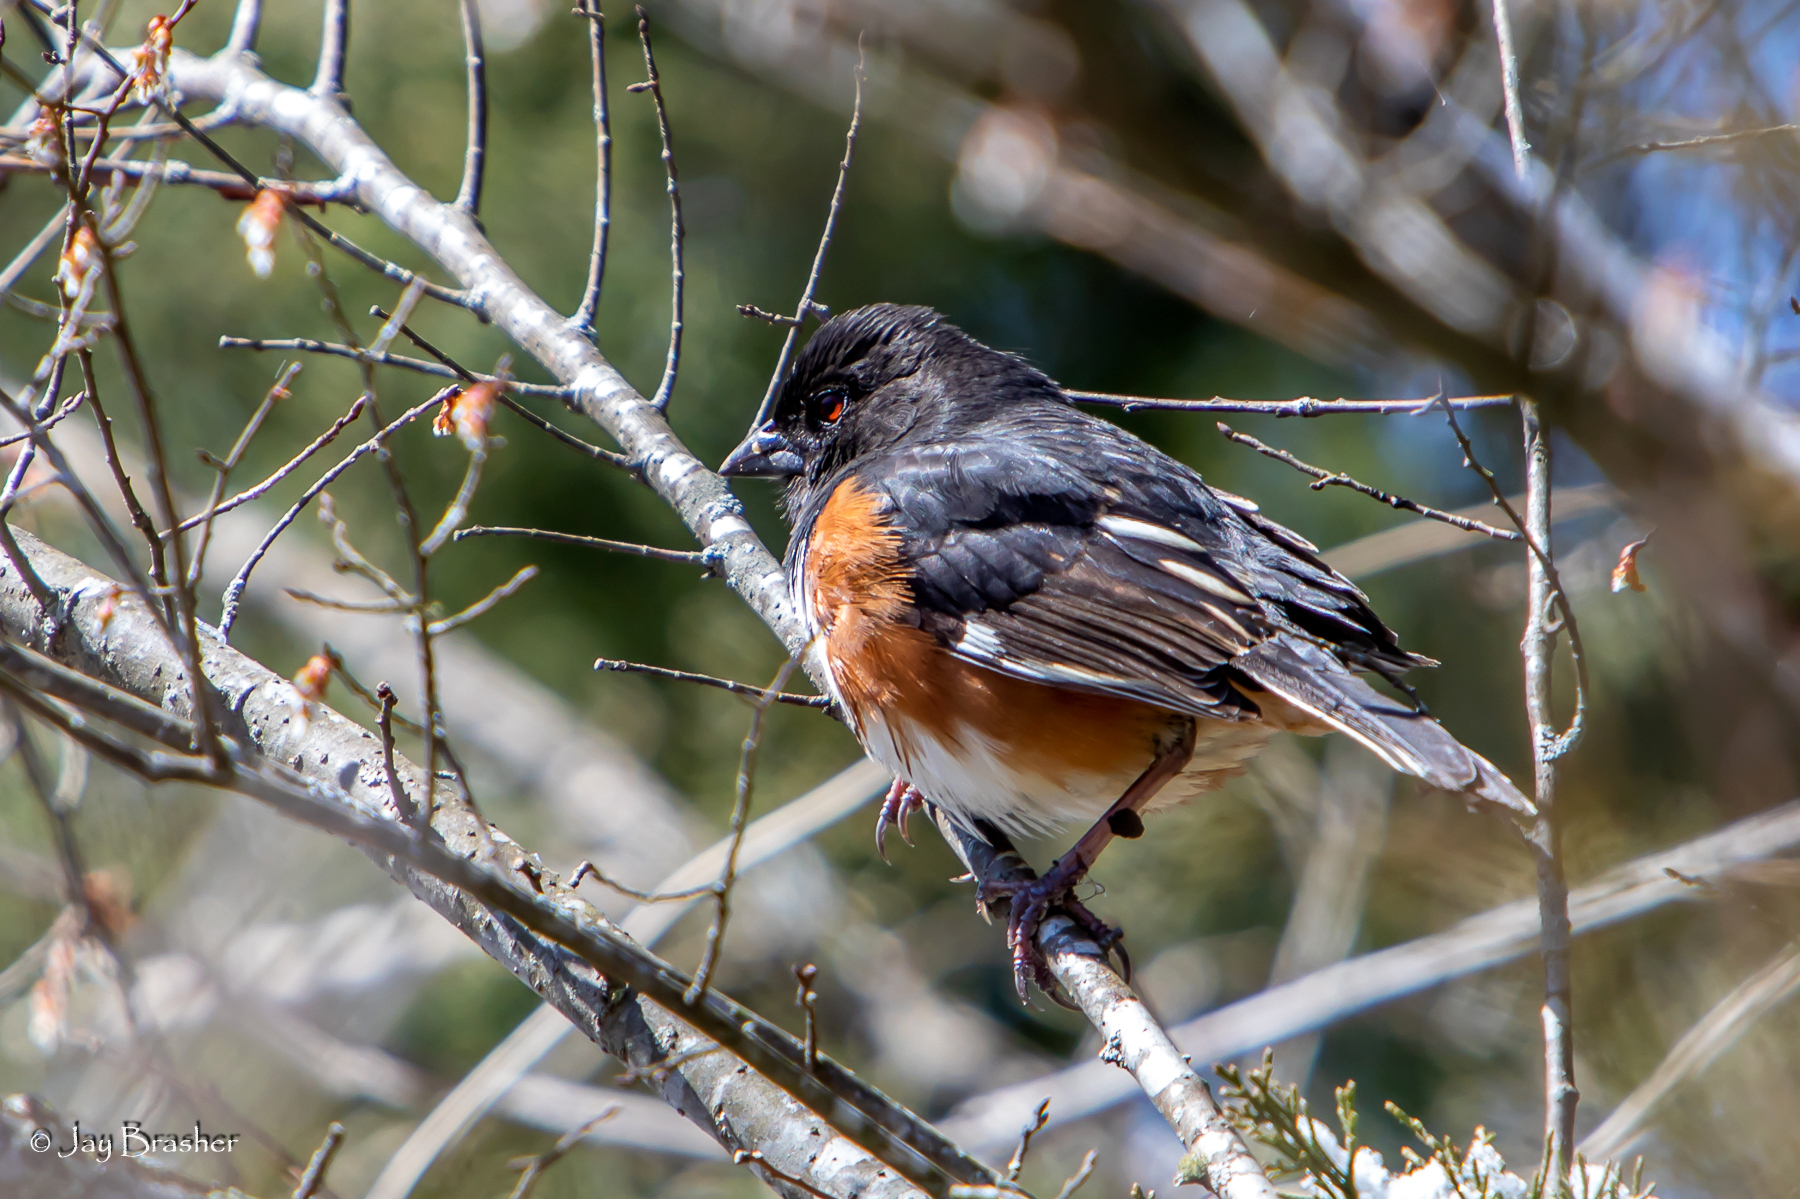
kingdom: Animalia
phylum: Chordata
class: Aves
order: Passeriformes
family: Passerellidae
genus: Pipilo
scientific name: Pipilo erythrophthalmus
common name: Eastern towhee
